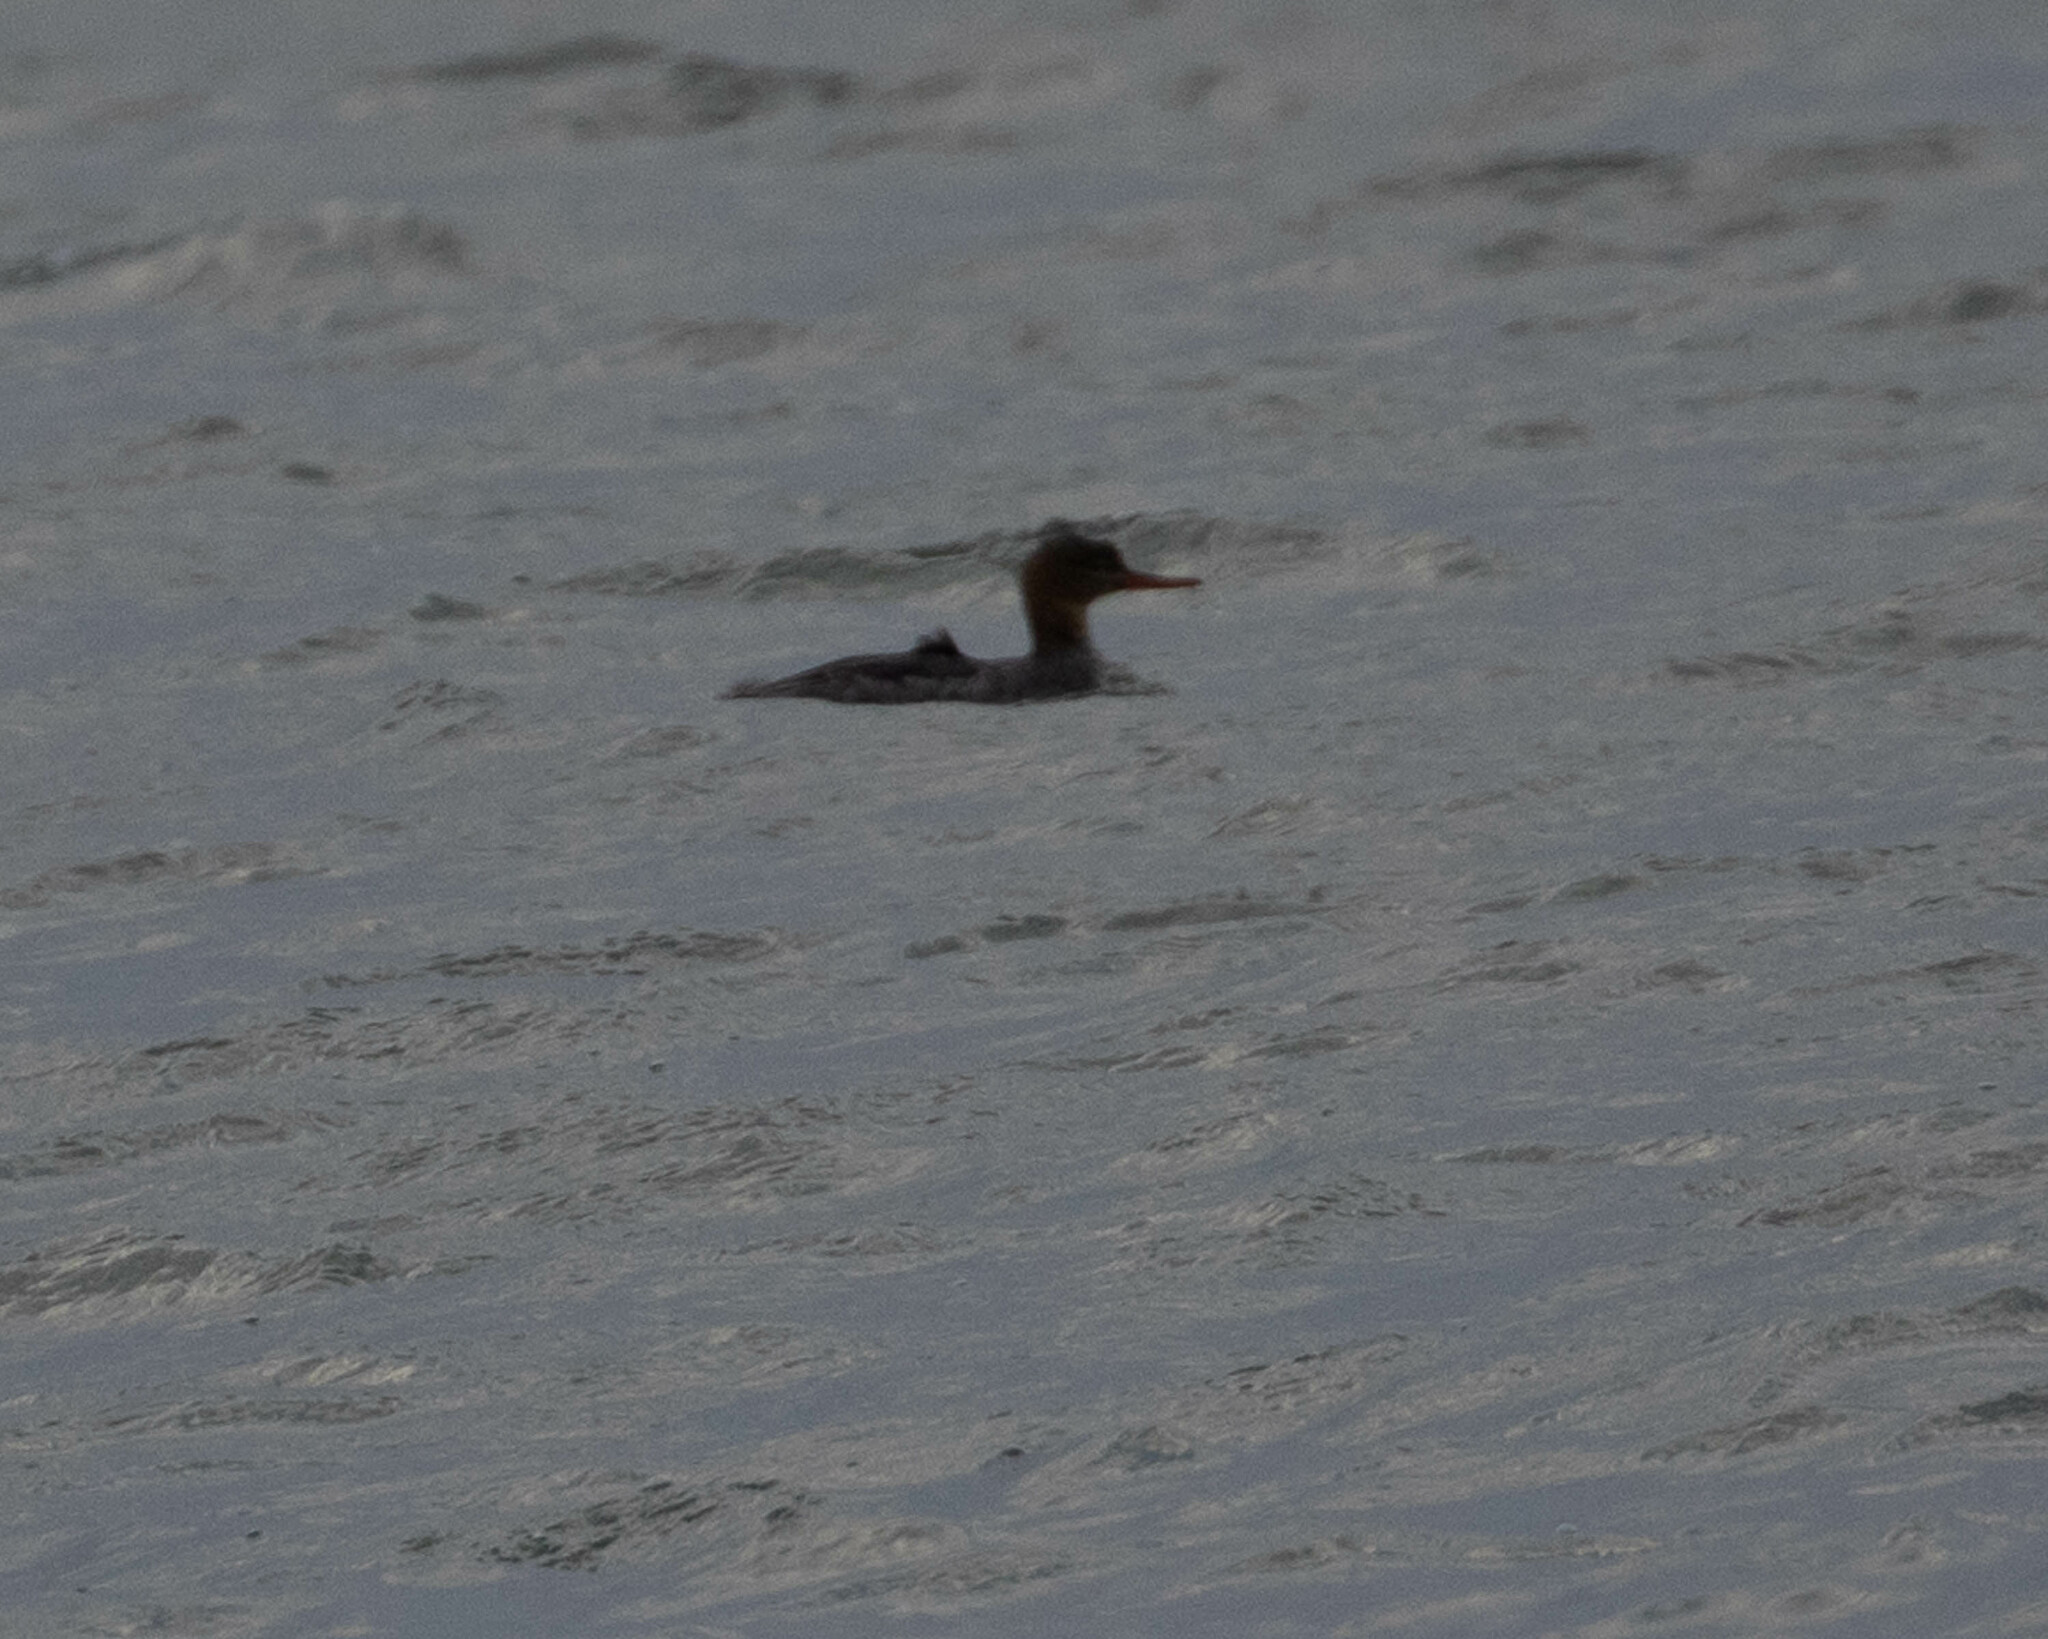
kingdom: Animalia
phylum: Chordata
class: Aves
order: Anseriformes
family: Anatidae
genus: Mergus
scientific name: Mergus serrator
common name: Red-breasted merganser
